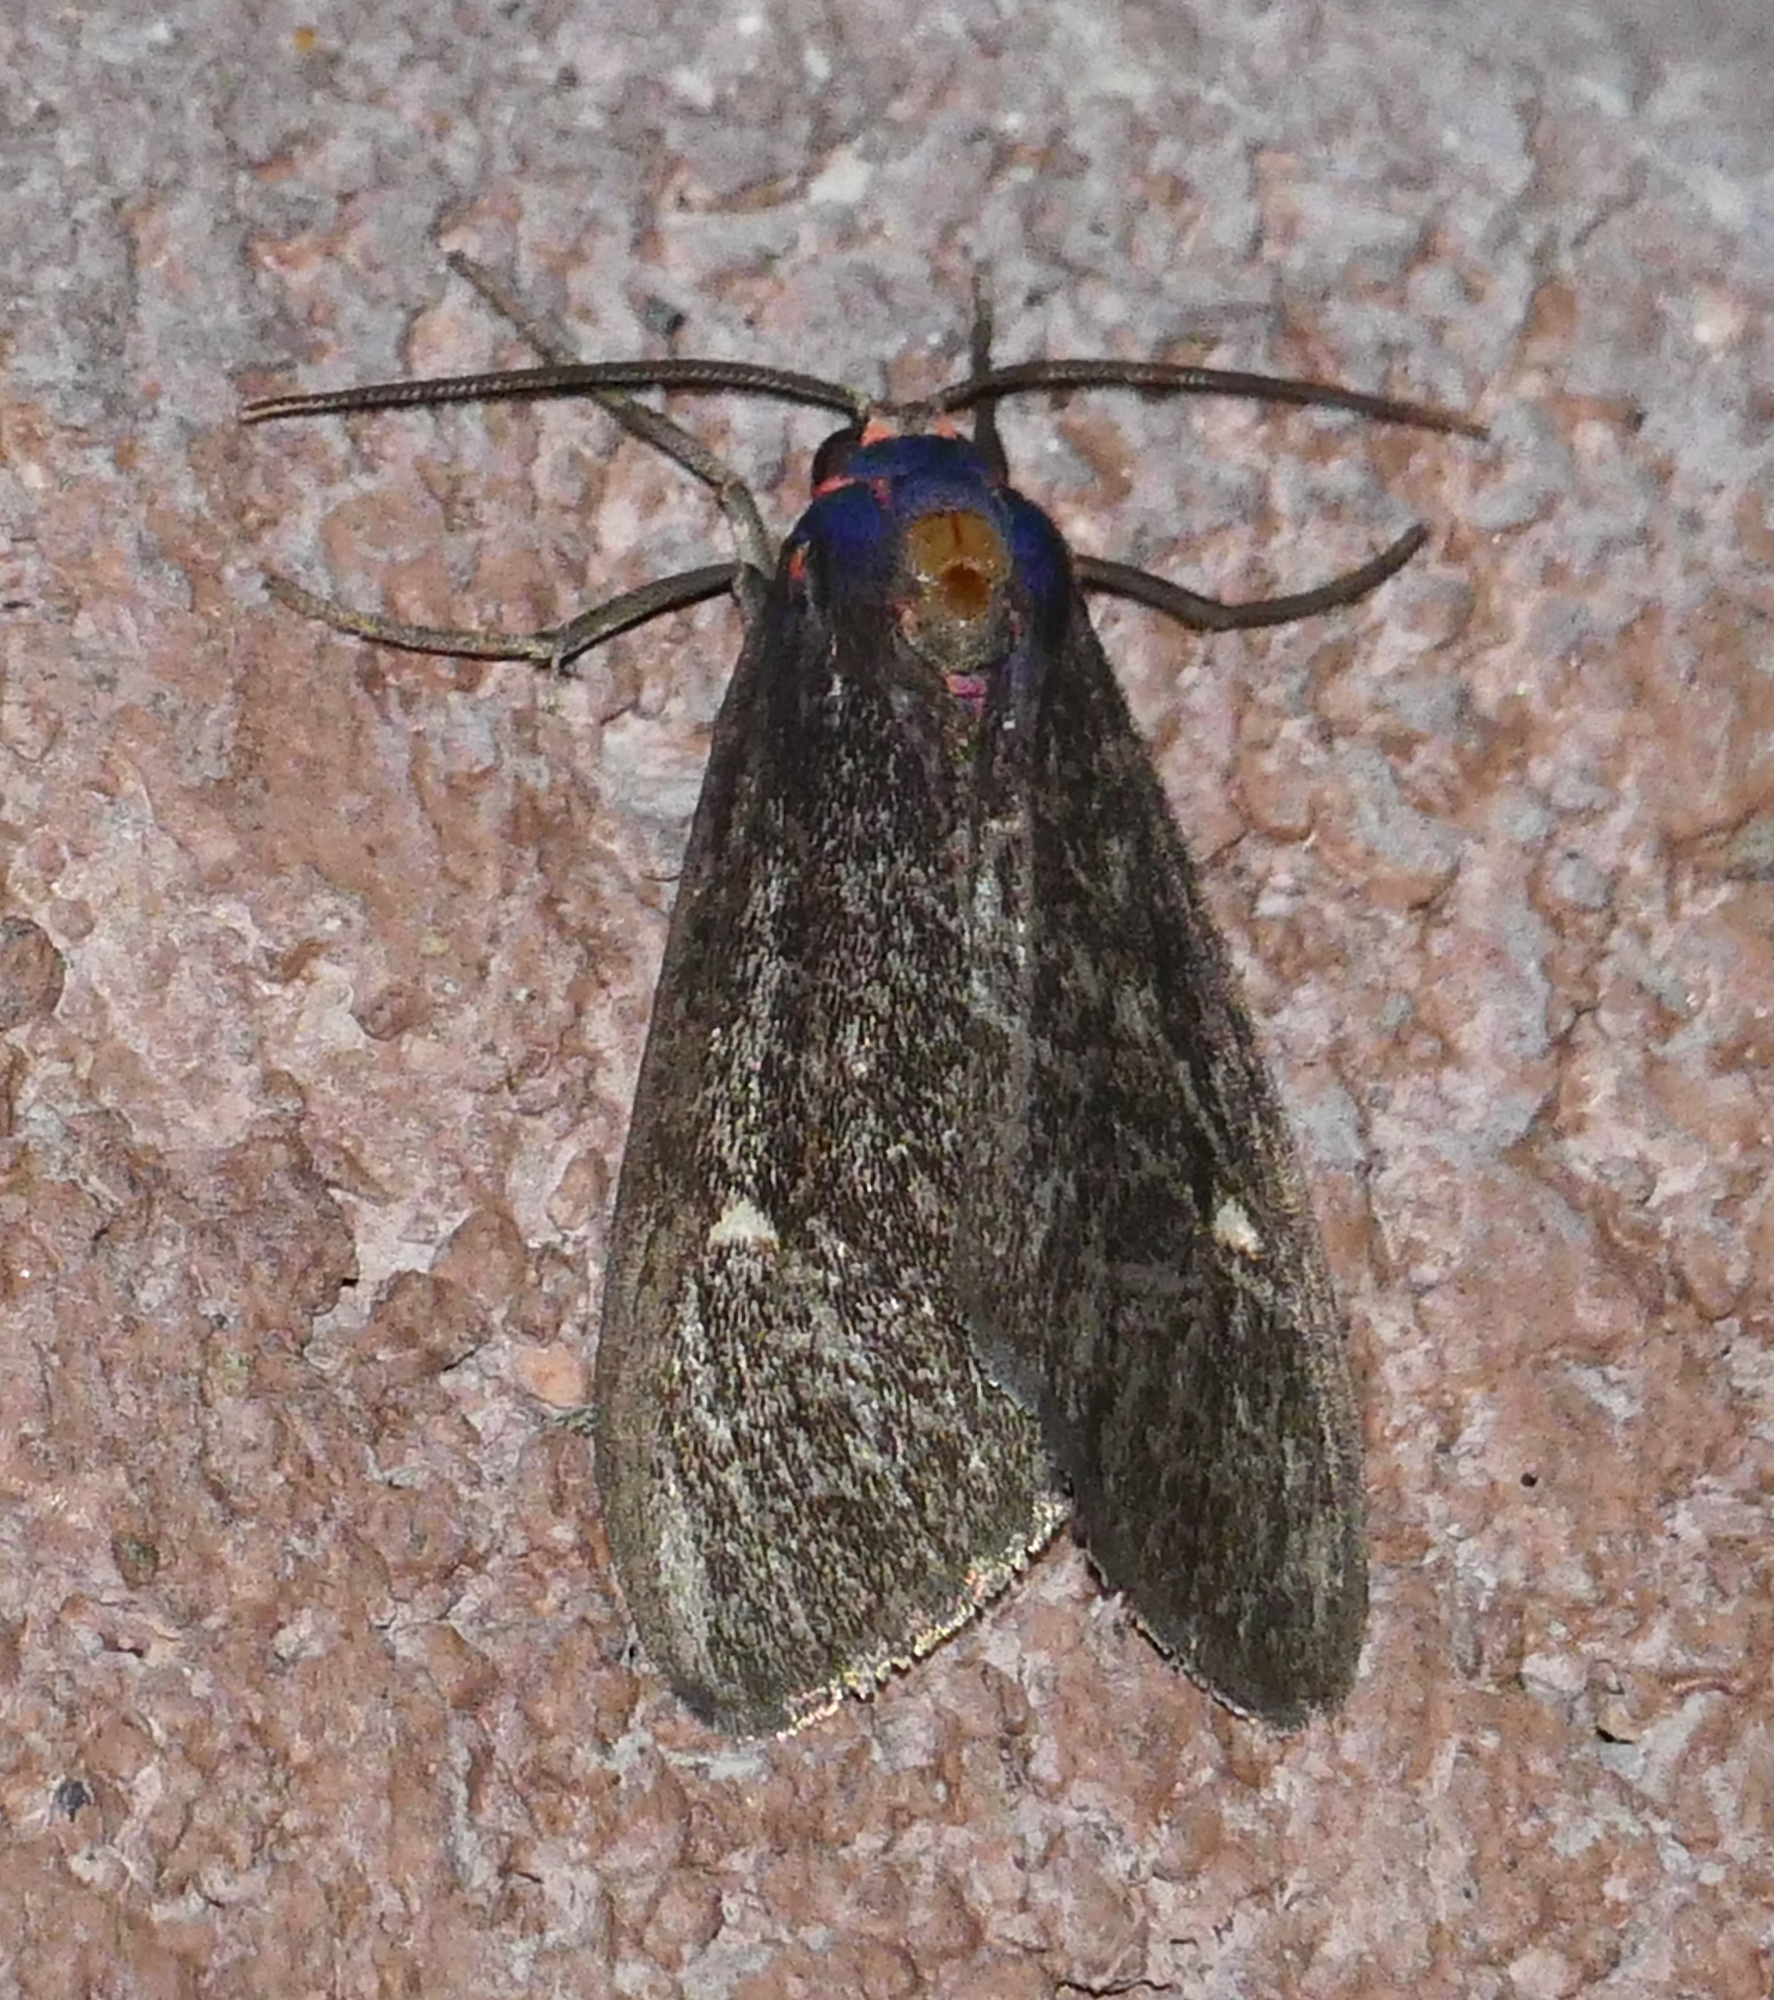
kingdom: Animalia
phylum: Arthropoda
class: Insecta
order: Lepidoptera
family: Erebidae
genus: Euchaetes
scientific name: Euchaetes zella
